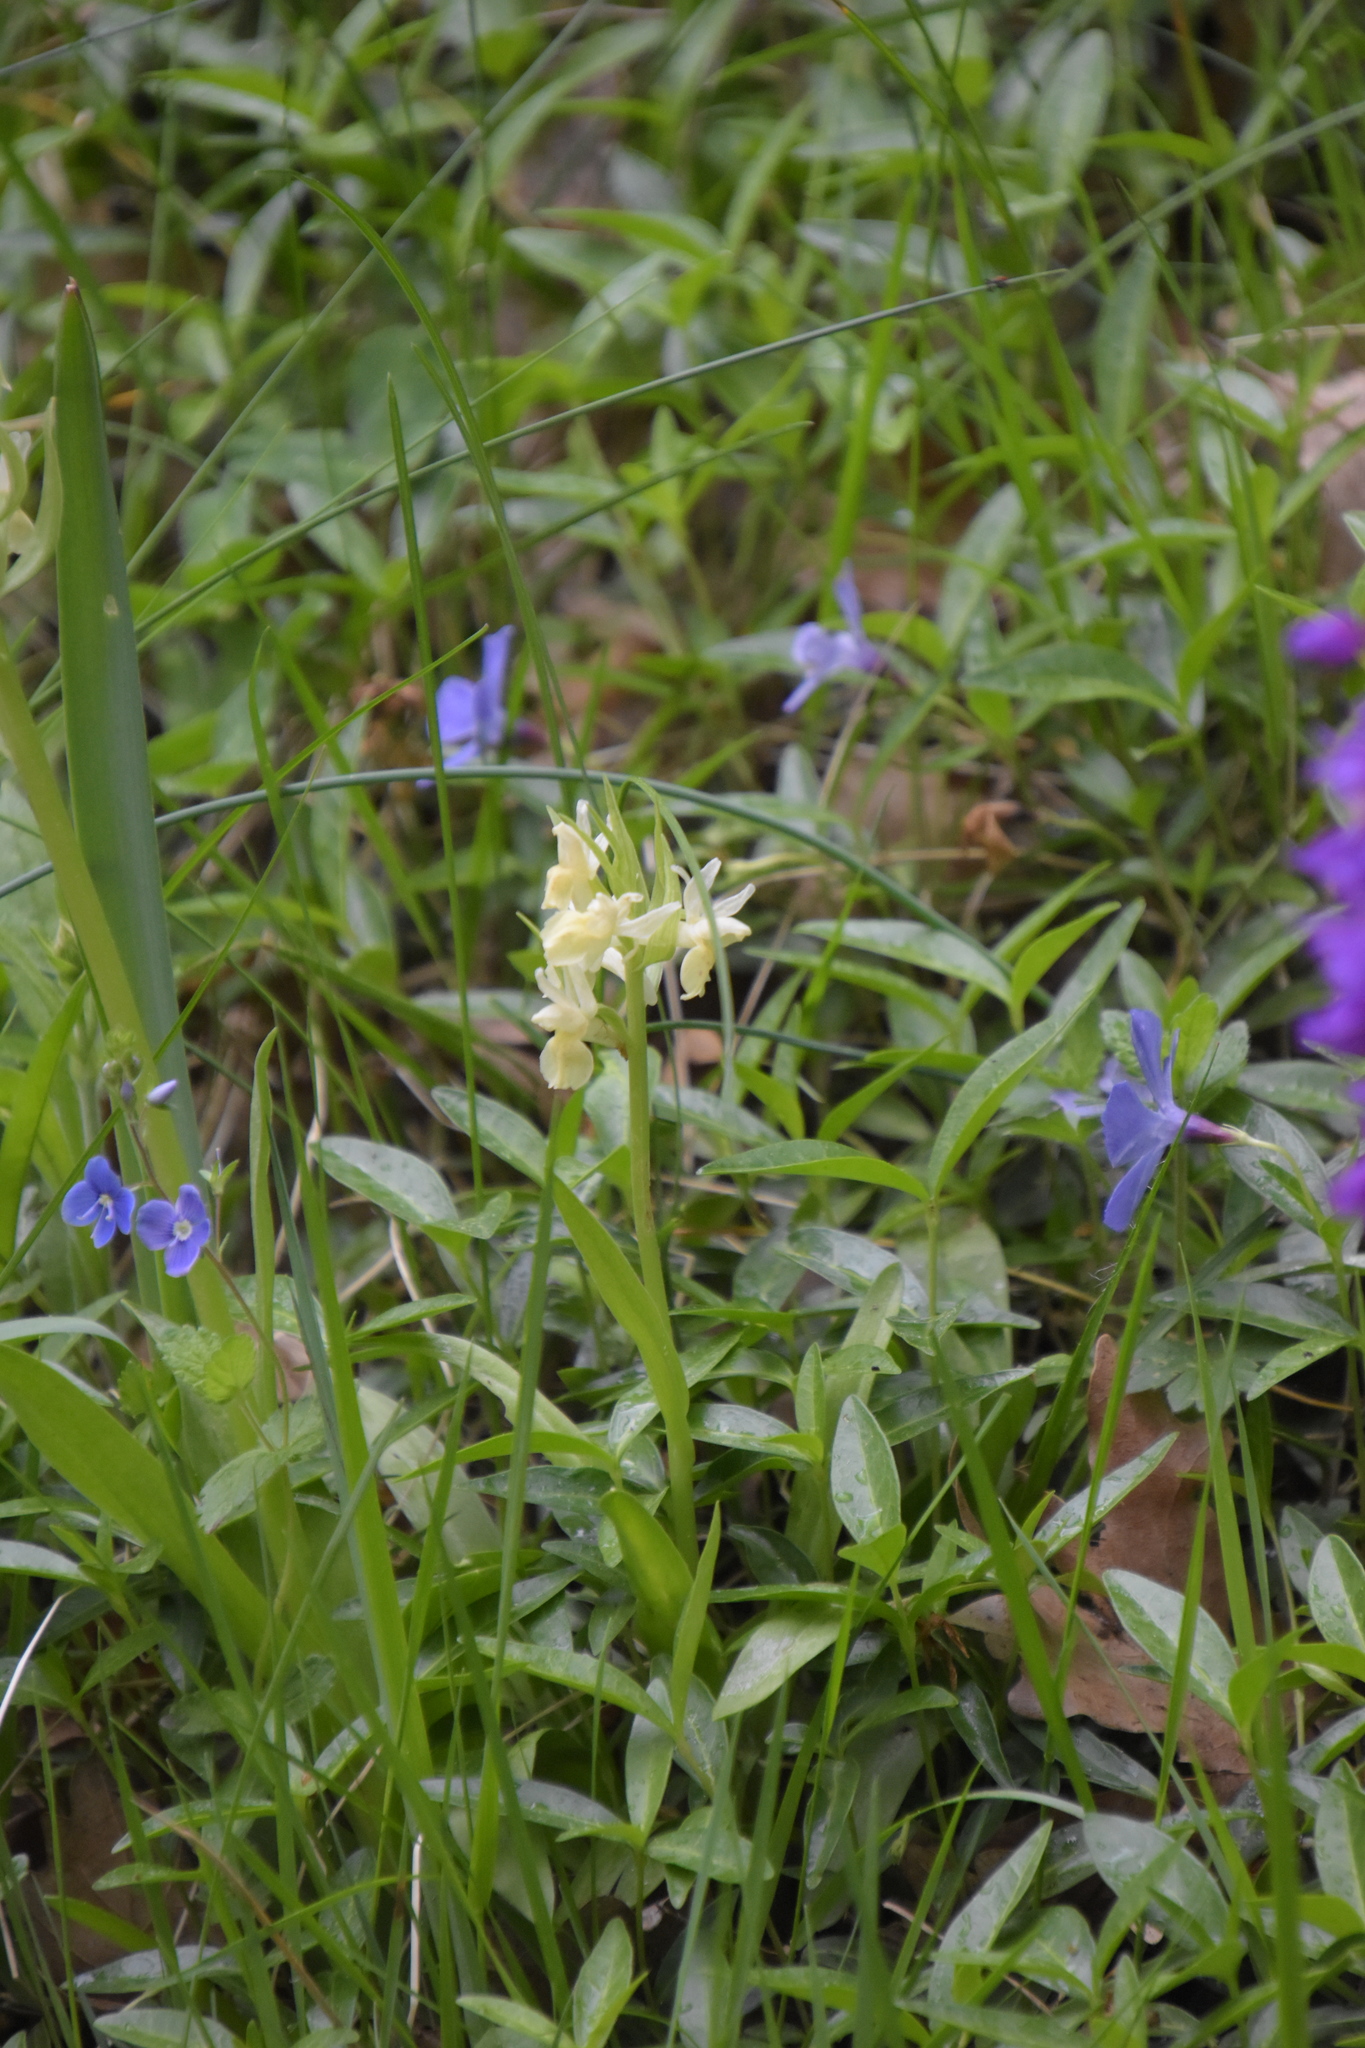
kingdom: Plantae
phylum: Tracheophyta
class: Liliopsida
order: Asparagales
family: Orchidaceae
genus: Dactylorhiza
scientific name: Dactylorhiza sambucina
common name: Elder-flowered orchid
